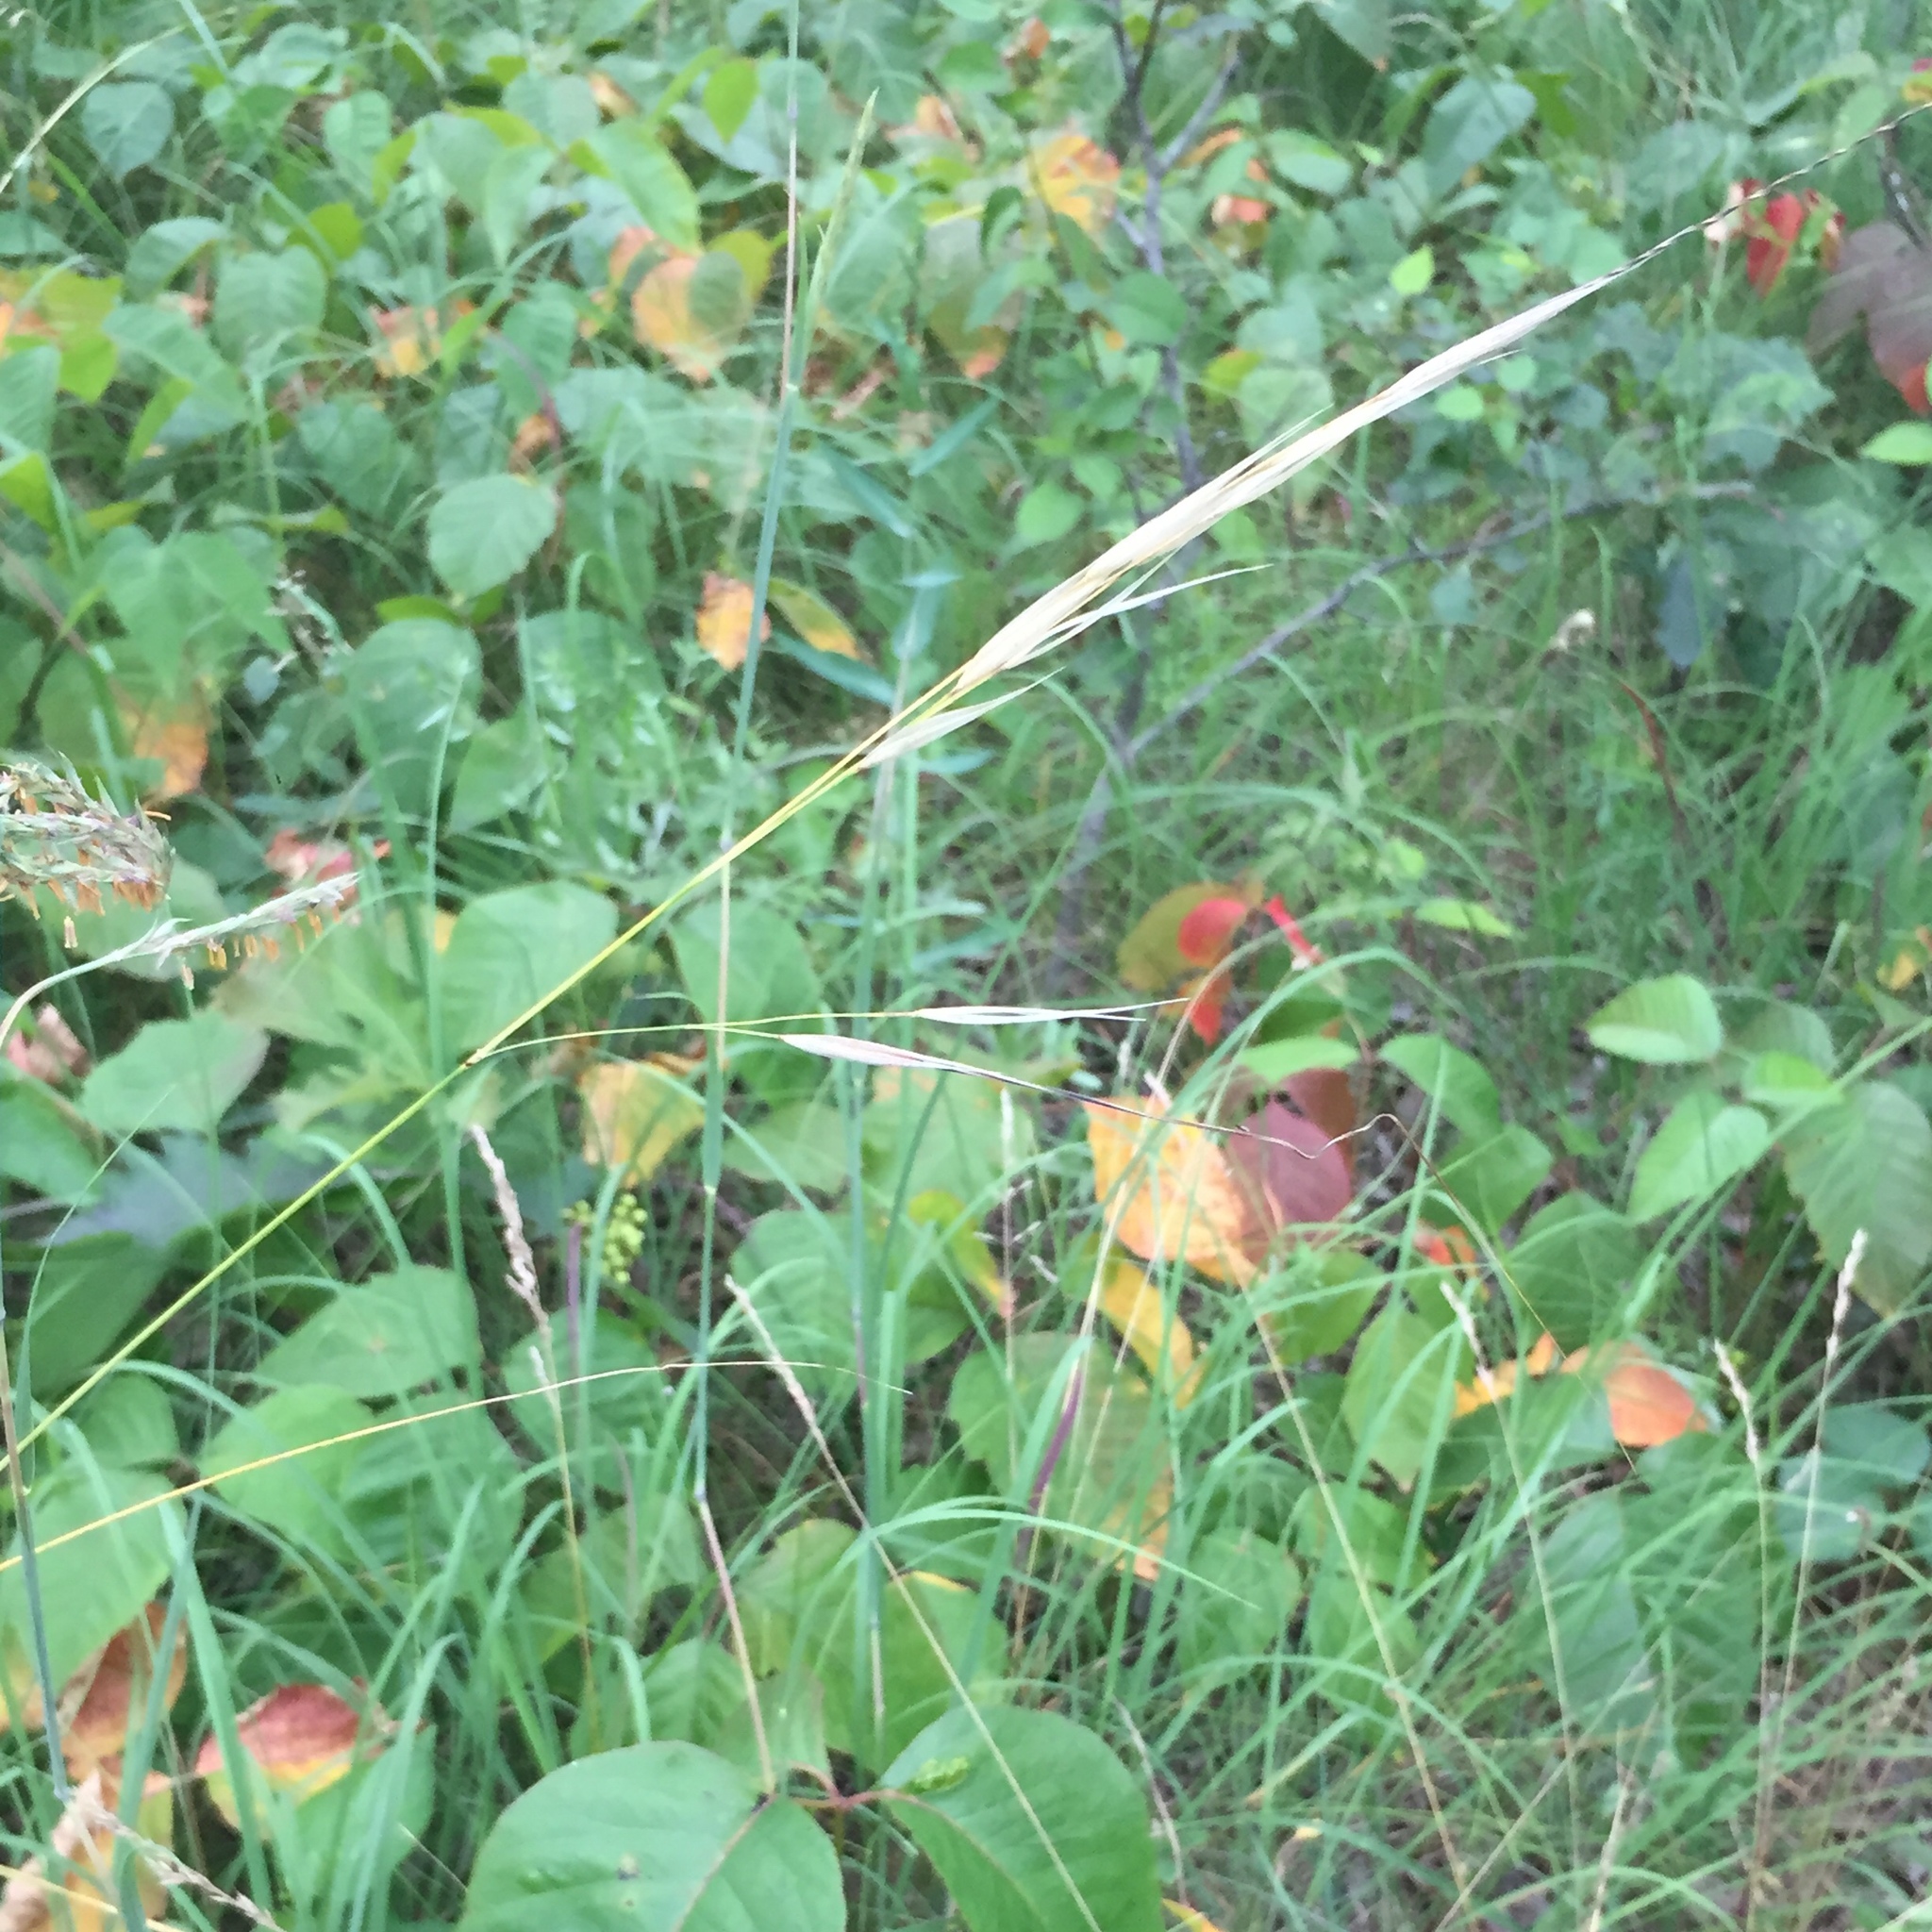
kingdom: Plantae
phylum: Tracheophyta
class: Liliopsida
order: Poales
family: Poaceae
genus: Hesperostipa
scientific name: Hesperostipa spartea
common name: Porcupine grass
